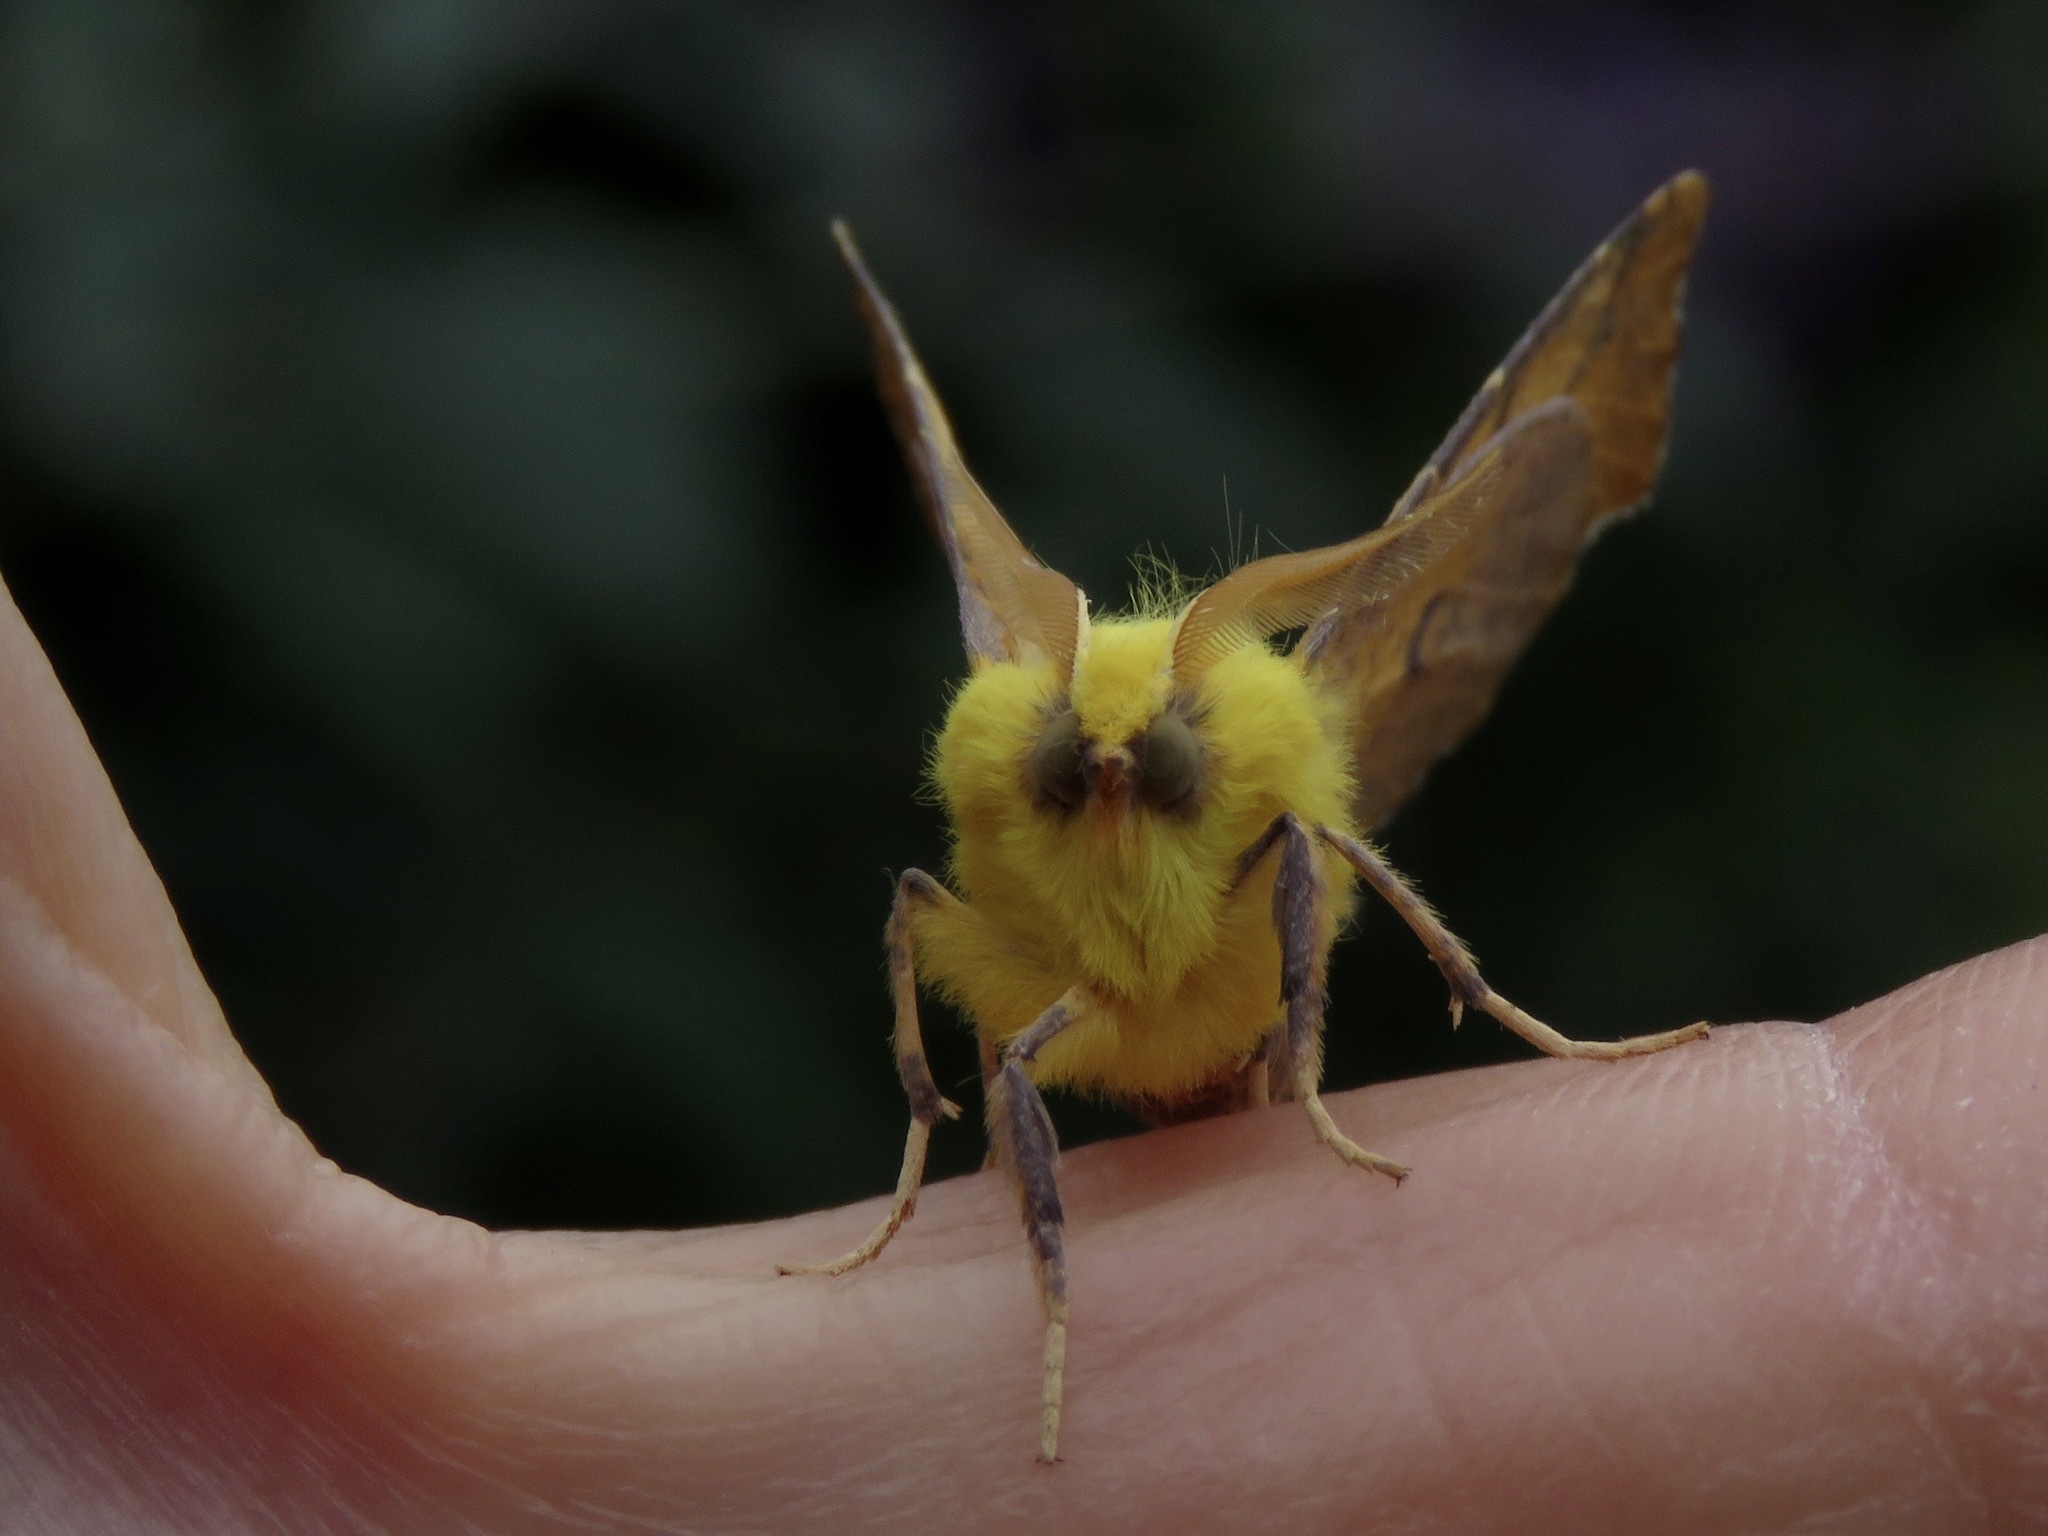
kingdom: Animalia
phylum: Arthropoda
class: Insecta
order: Lepidoptera
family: Geometridae
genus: Ennomos
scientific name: Ennomos alniaria
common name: Canary-shouldered thorn
